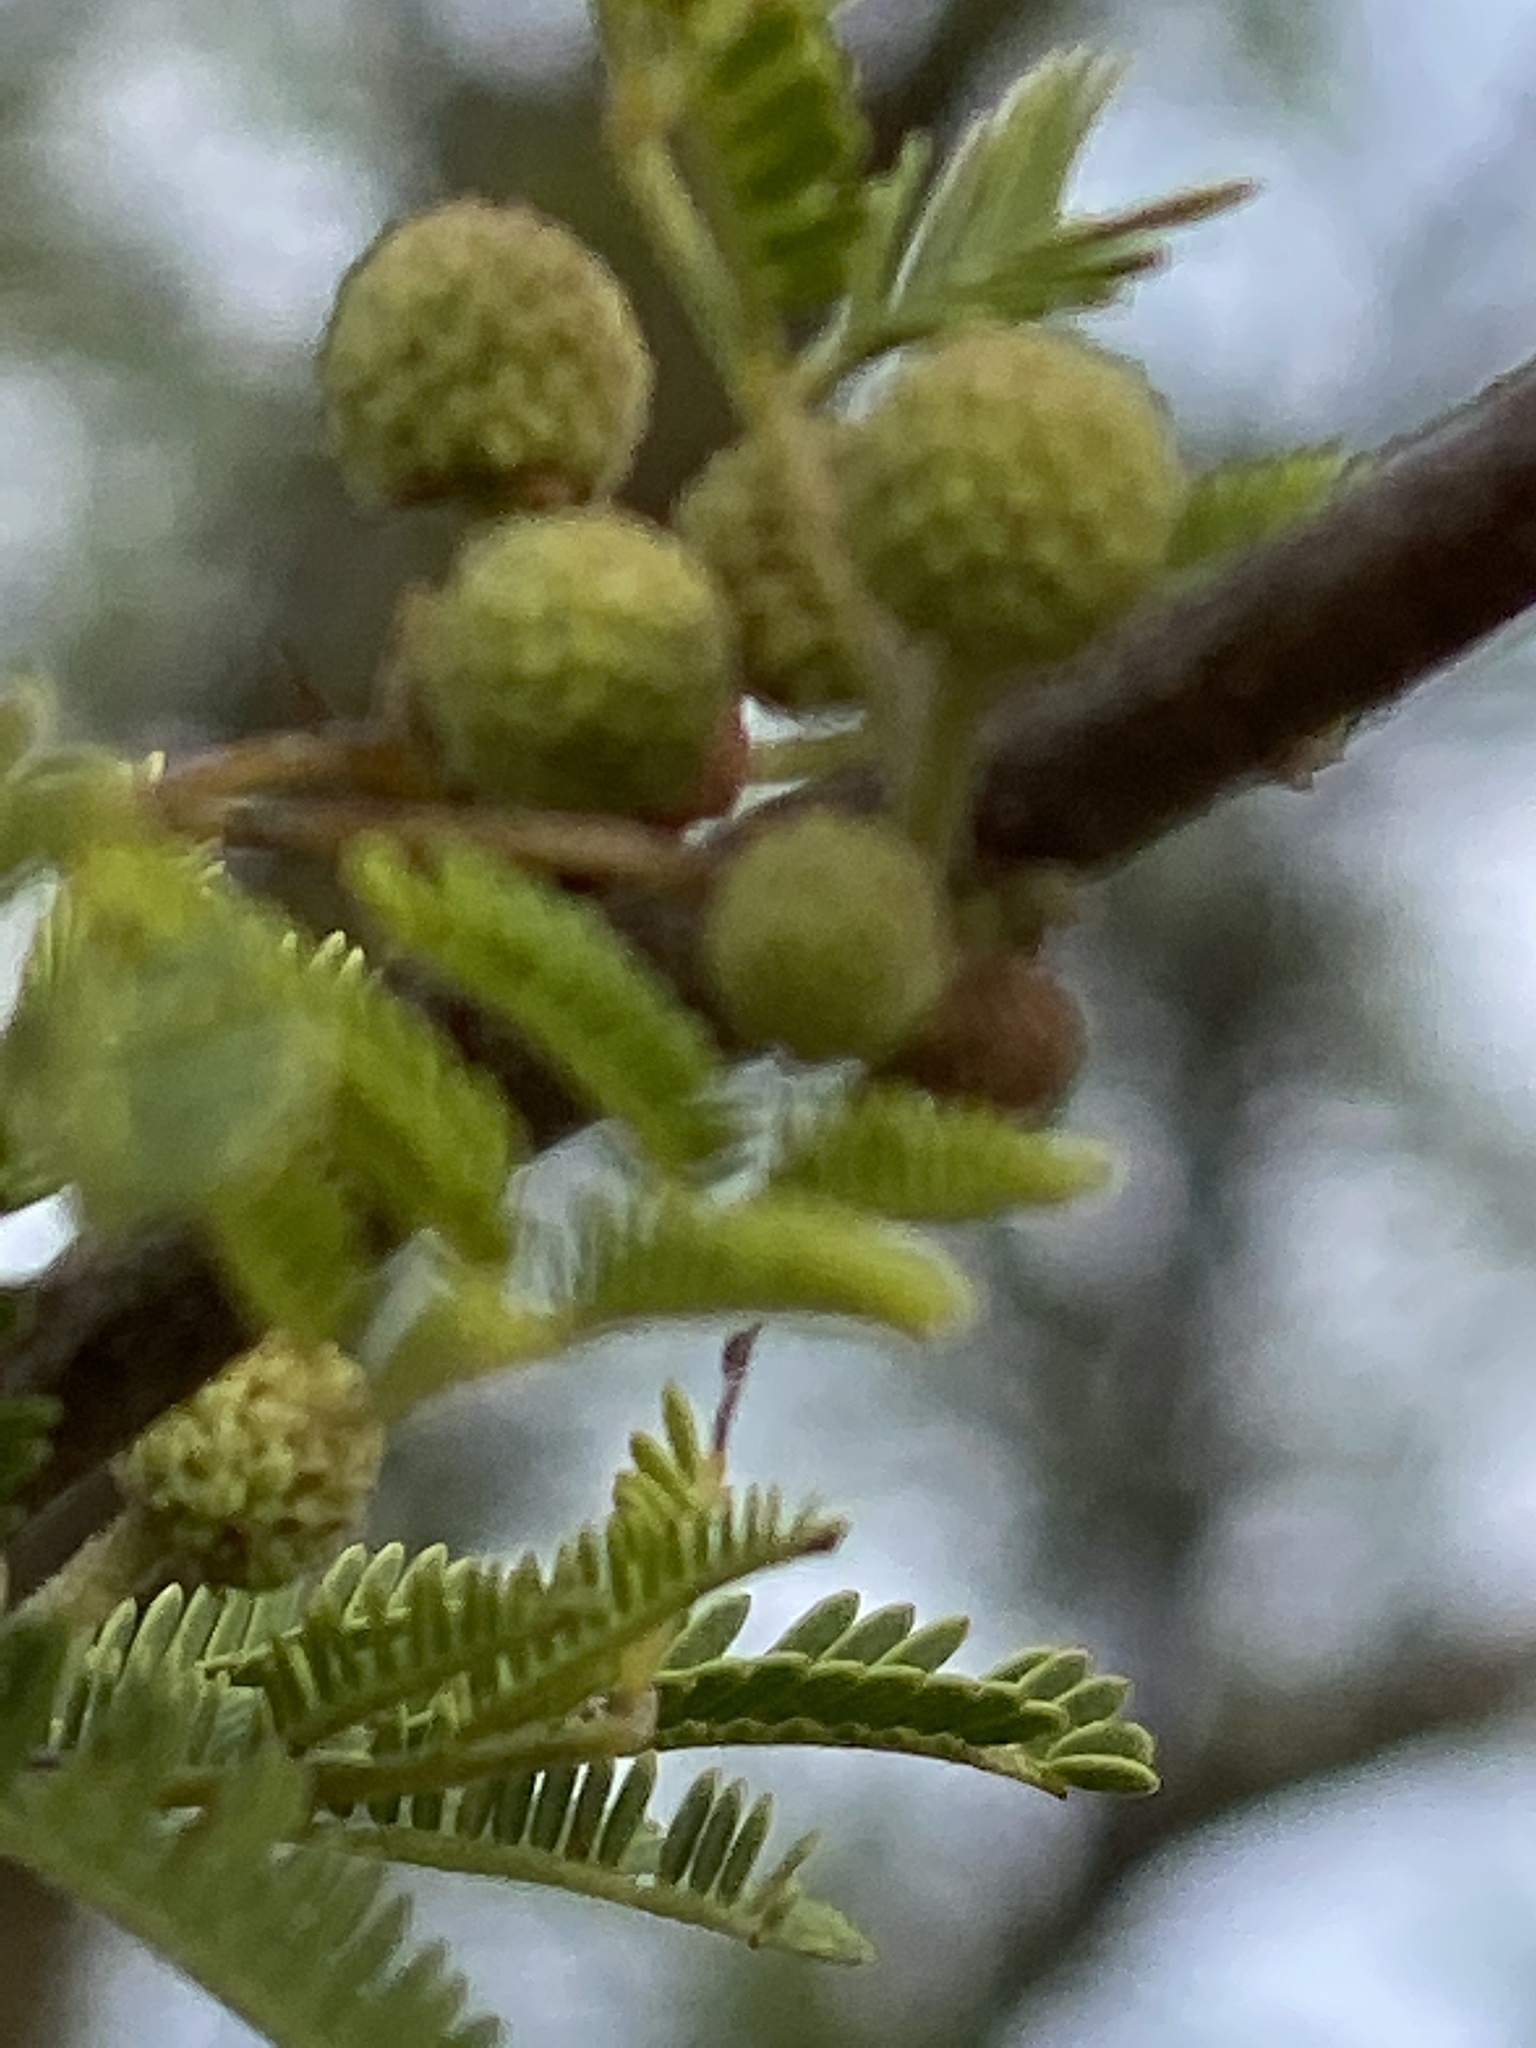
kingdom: Plantae
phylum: Tracheophyta
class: Magnoliopsida
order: Fabales
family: Fabaceae
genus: Vachellia
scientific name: Vachellia farnesiana
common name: Sweet acacia
